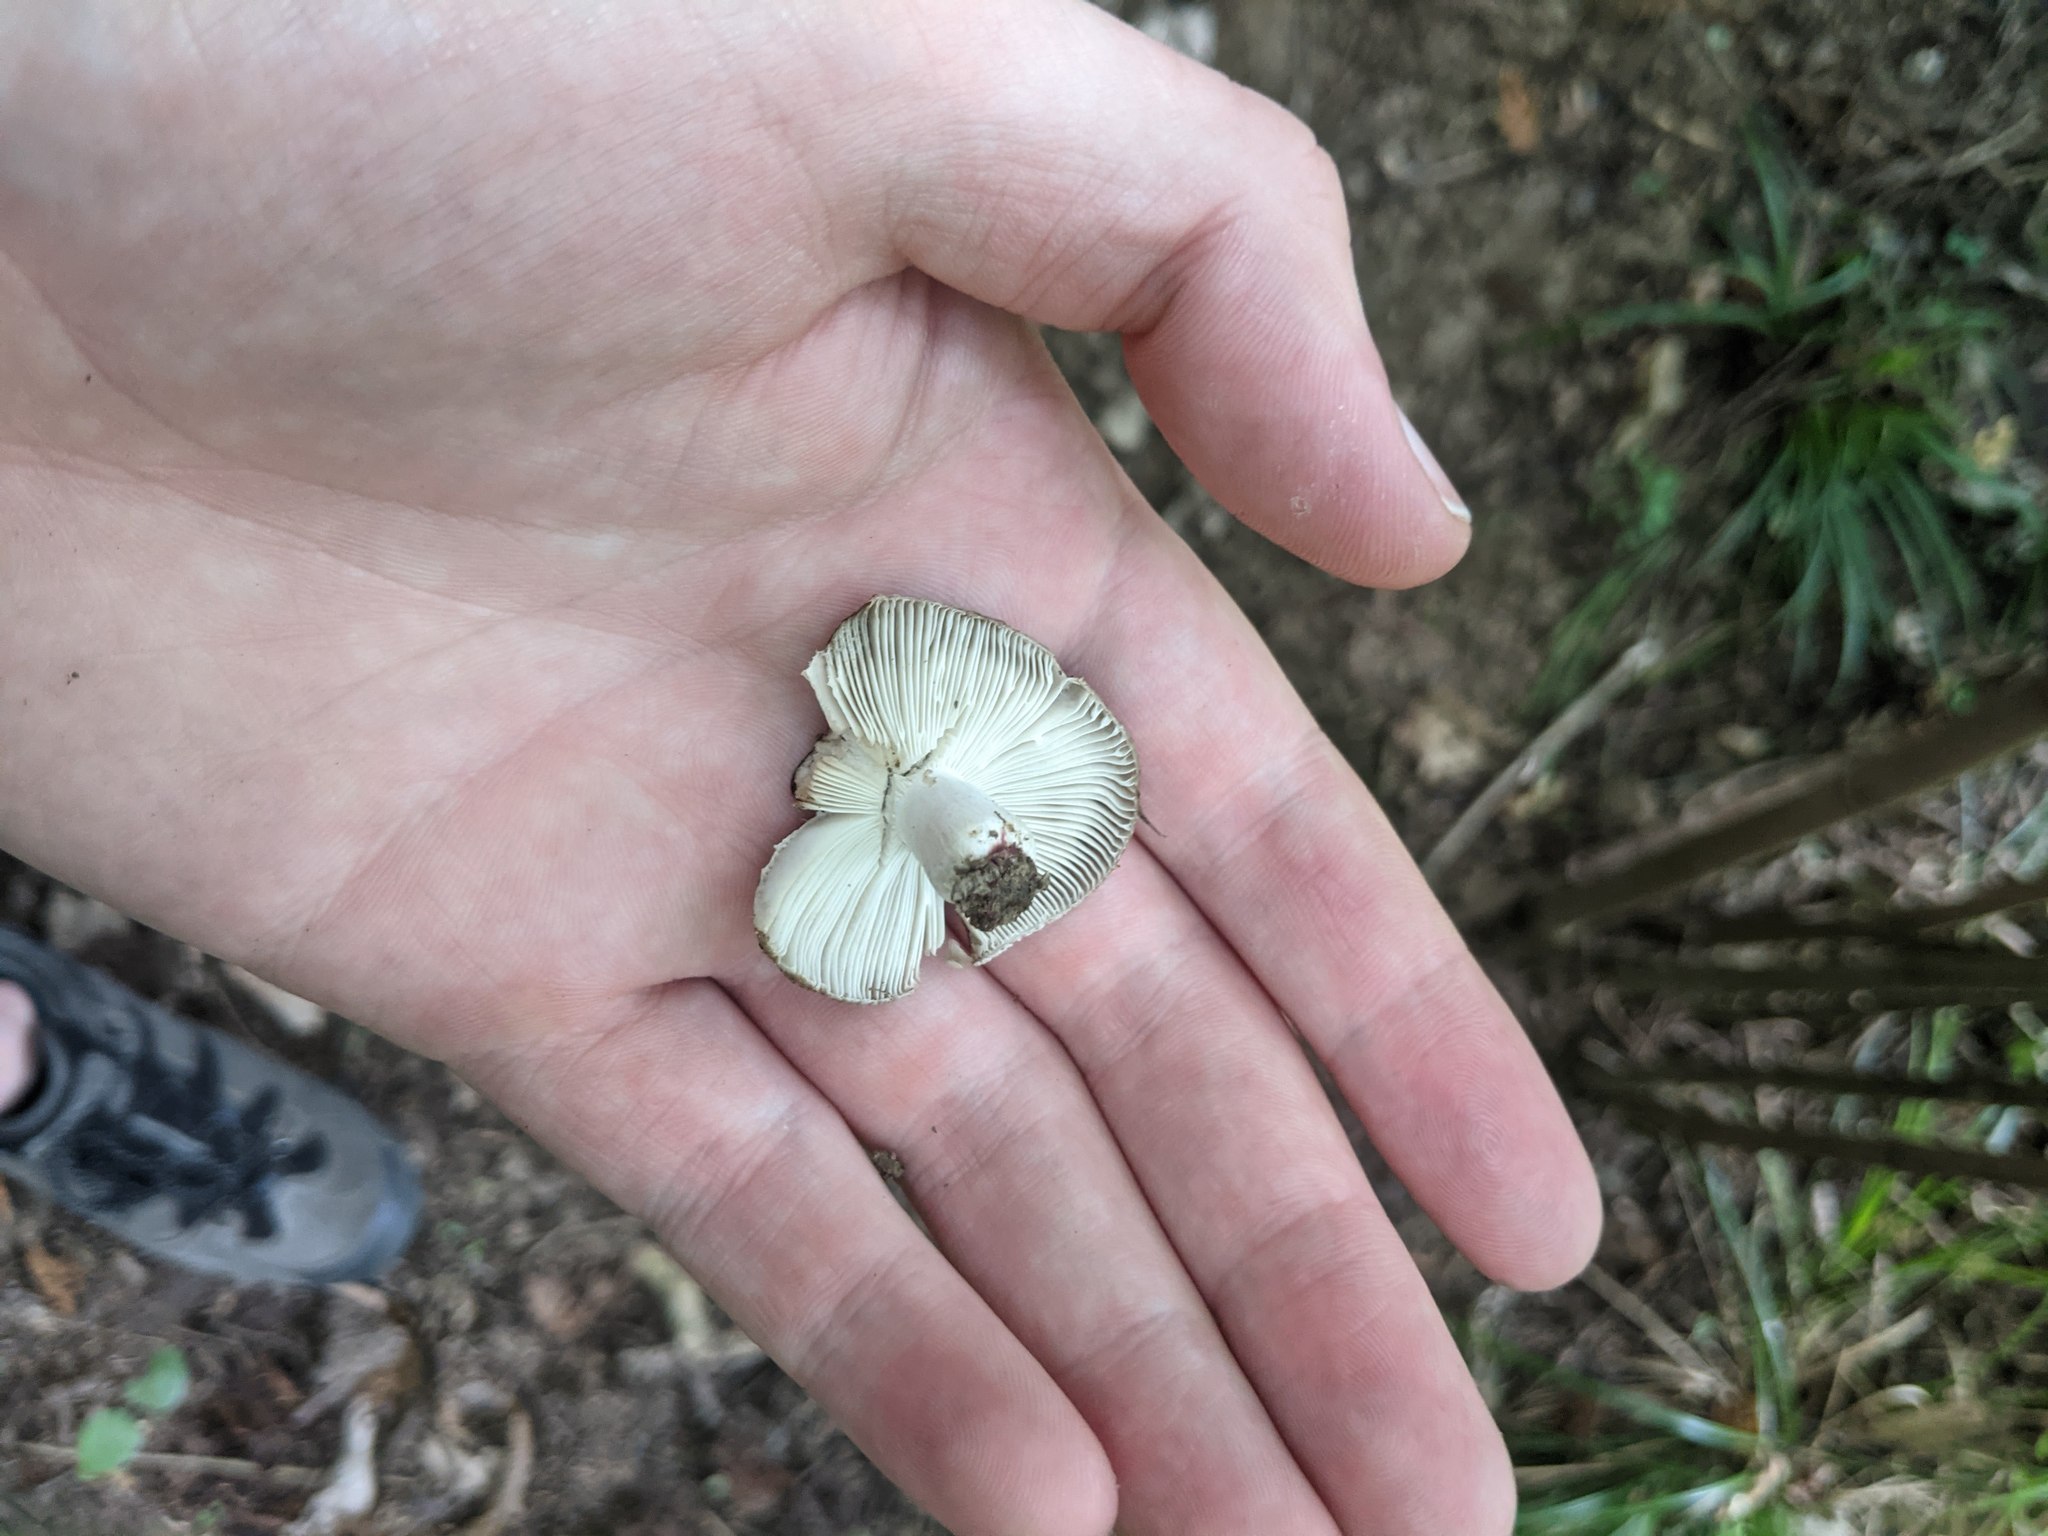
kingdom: Fungi
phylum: Basidiomycota
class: Agaricomycetes
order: Russulales
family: Russulaceae
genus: Russula
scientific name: Russula vinaceocuticulata
